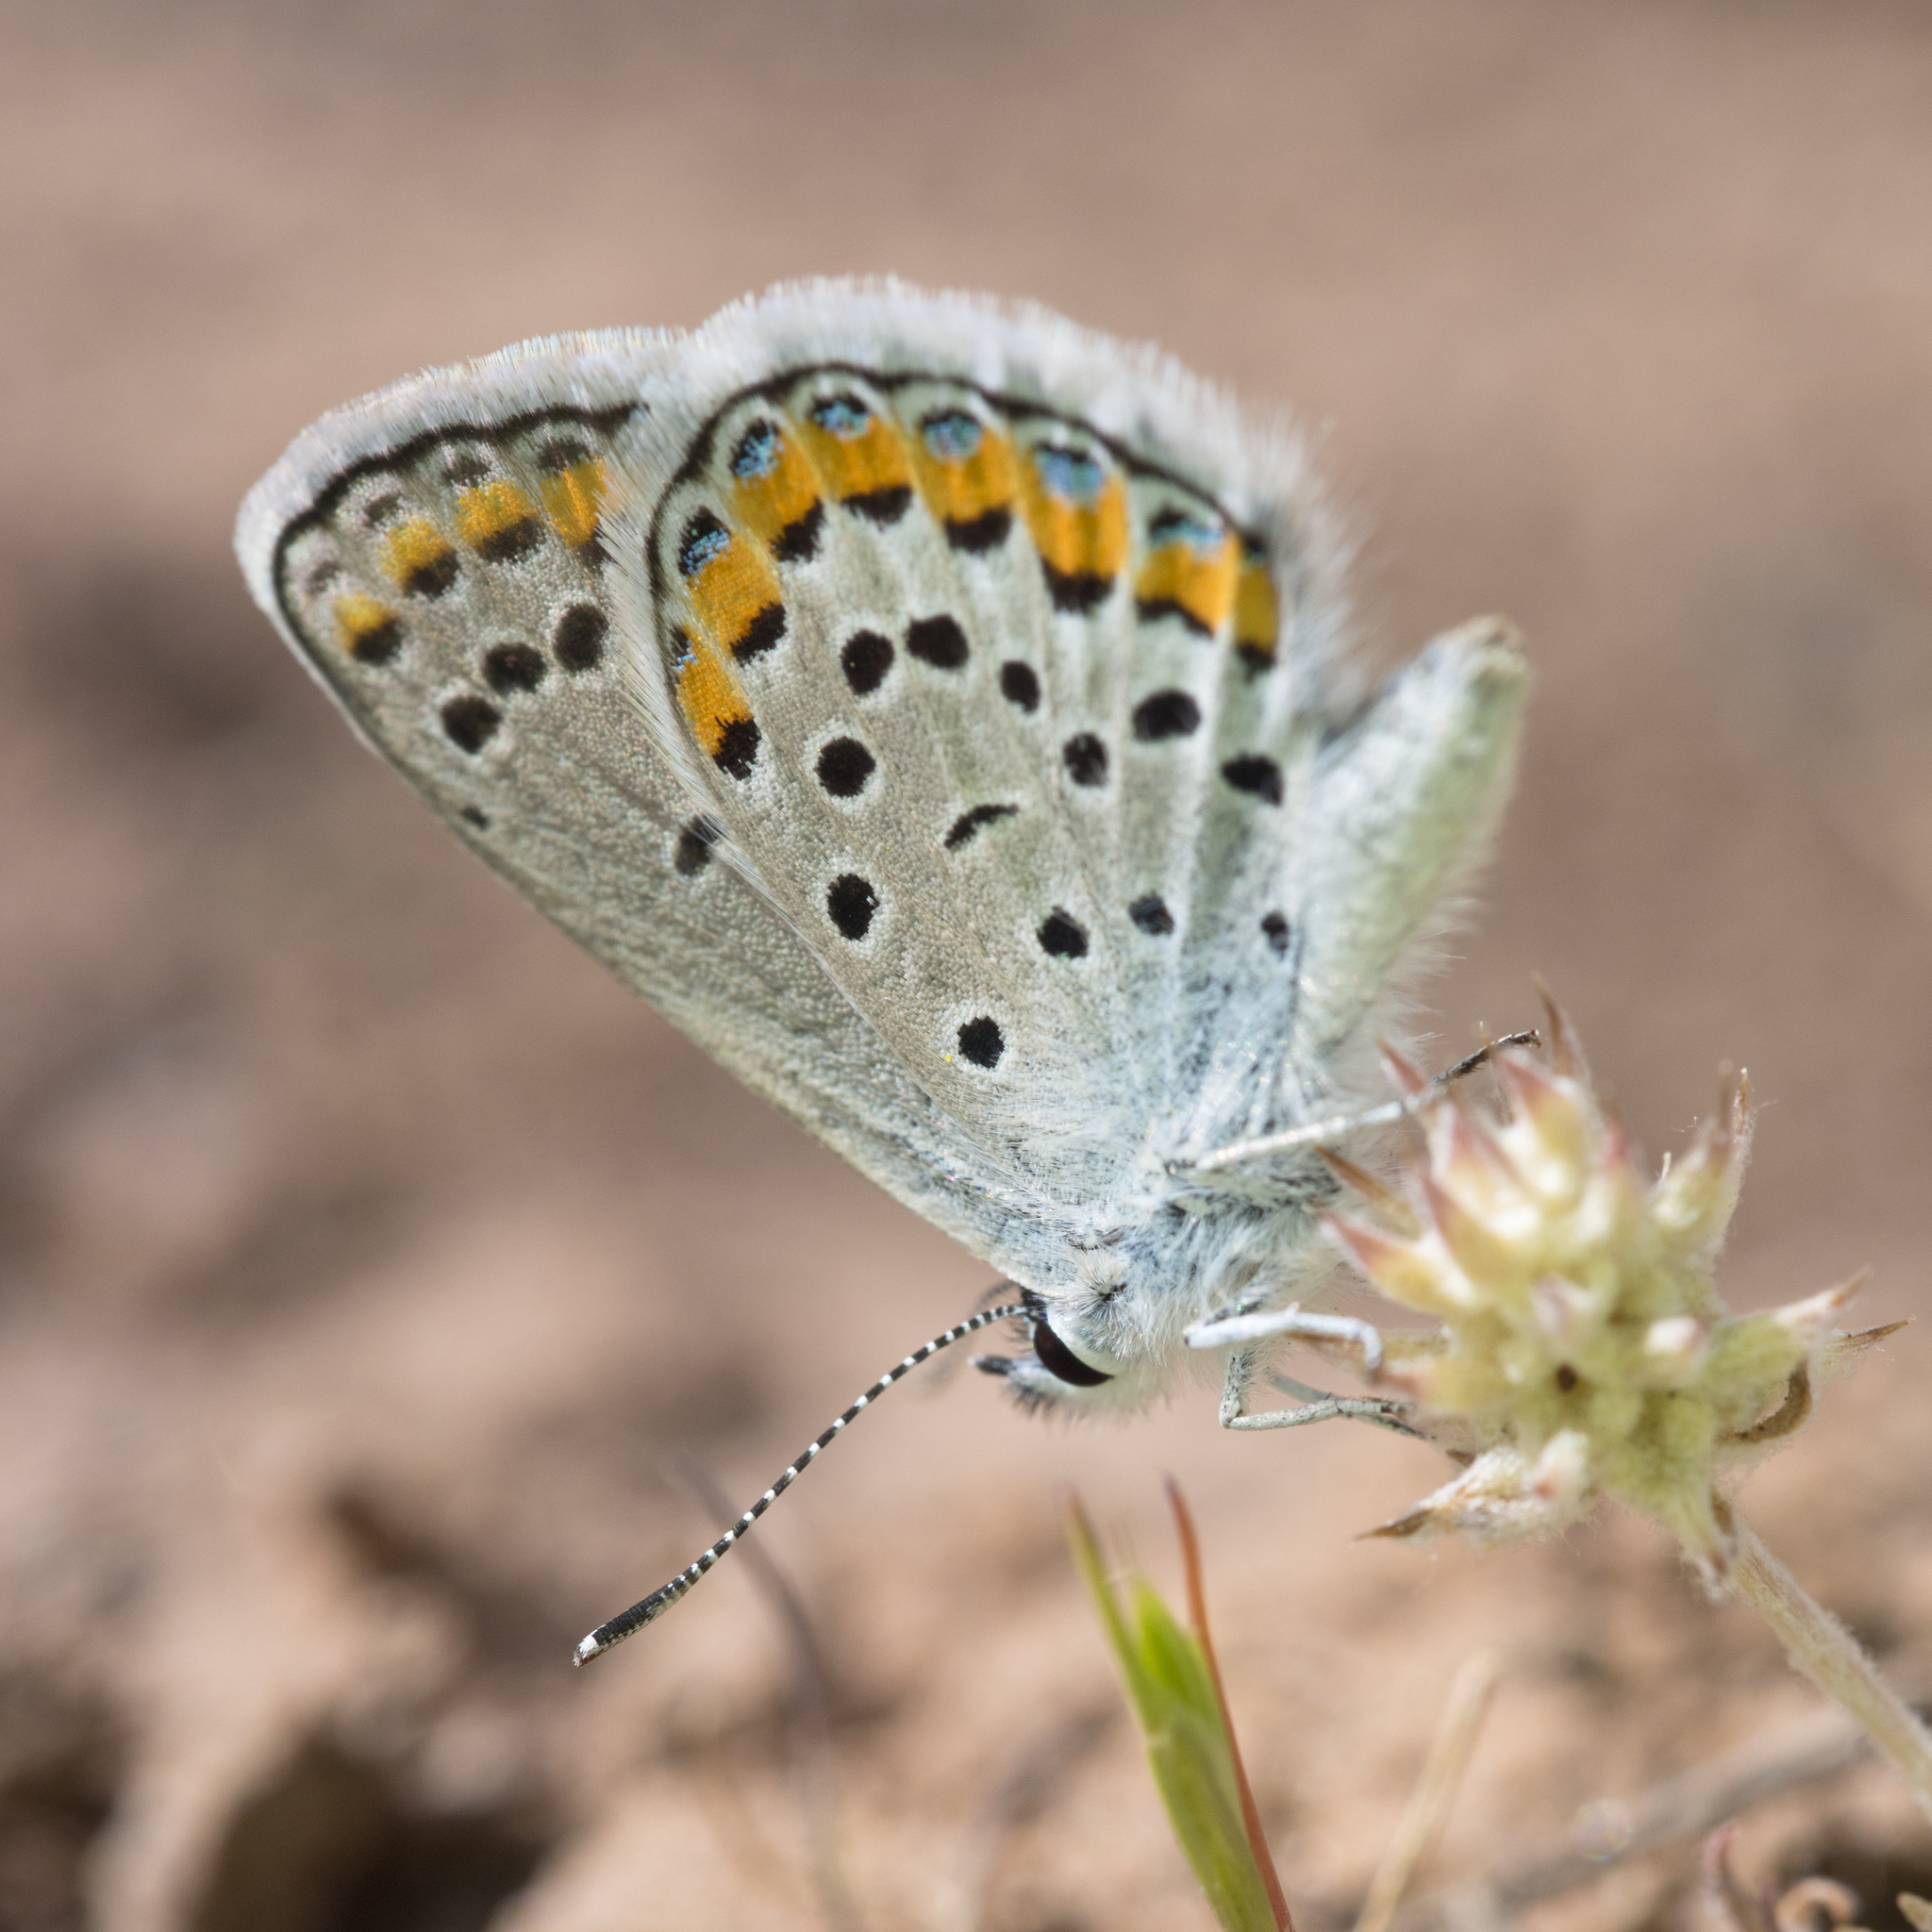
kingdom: Animalia
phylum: Arthropoda
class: Insecta
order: Lepidoptera
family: Lycaenidae
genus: Lycaeides
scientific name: Lycaeides melissa
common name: Melissa blue
